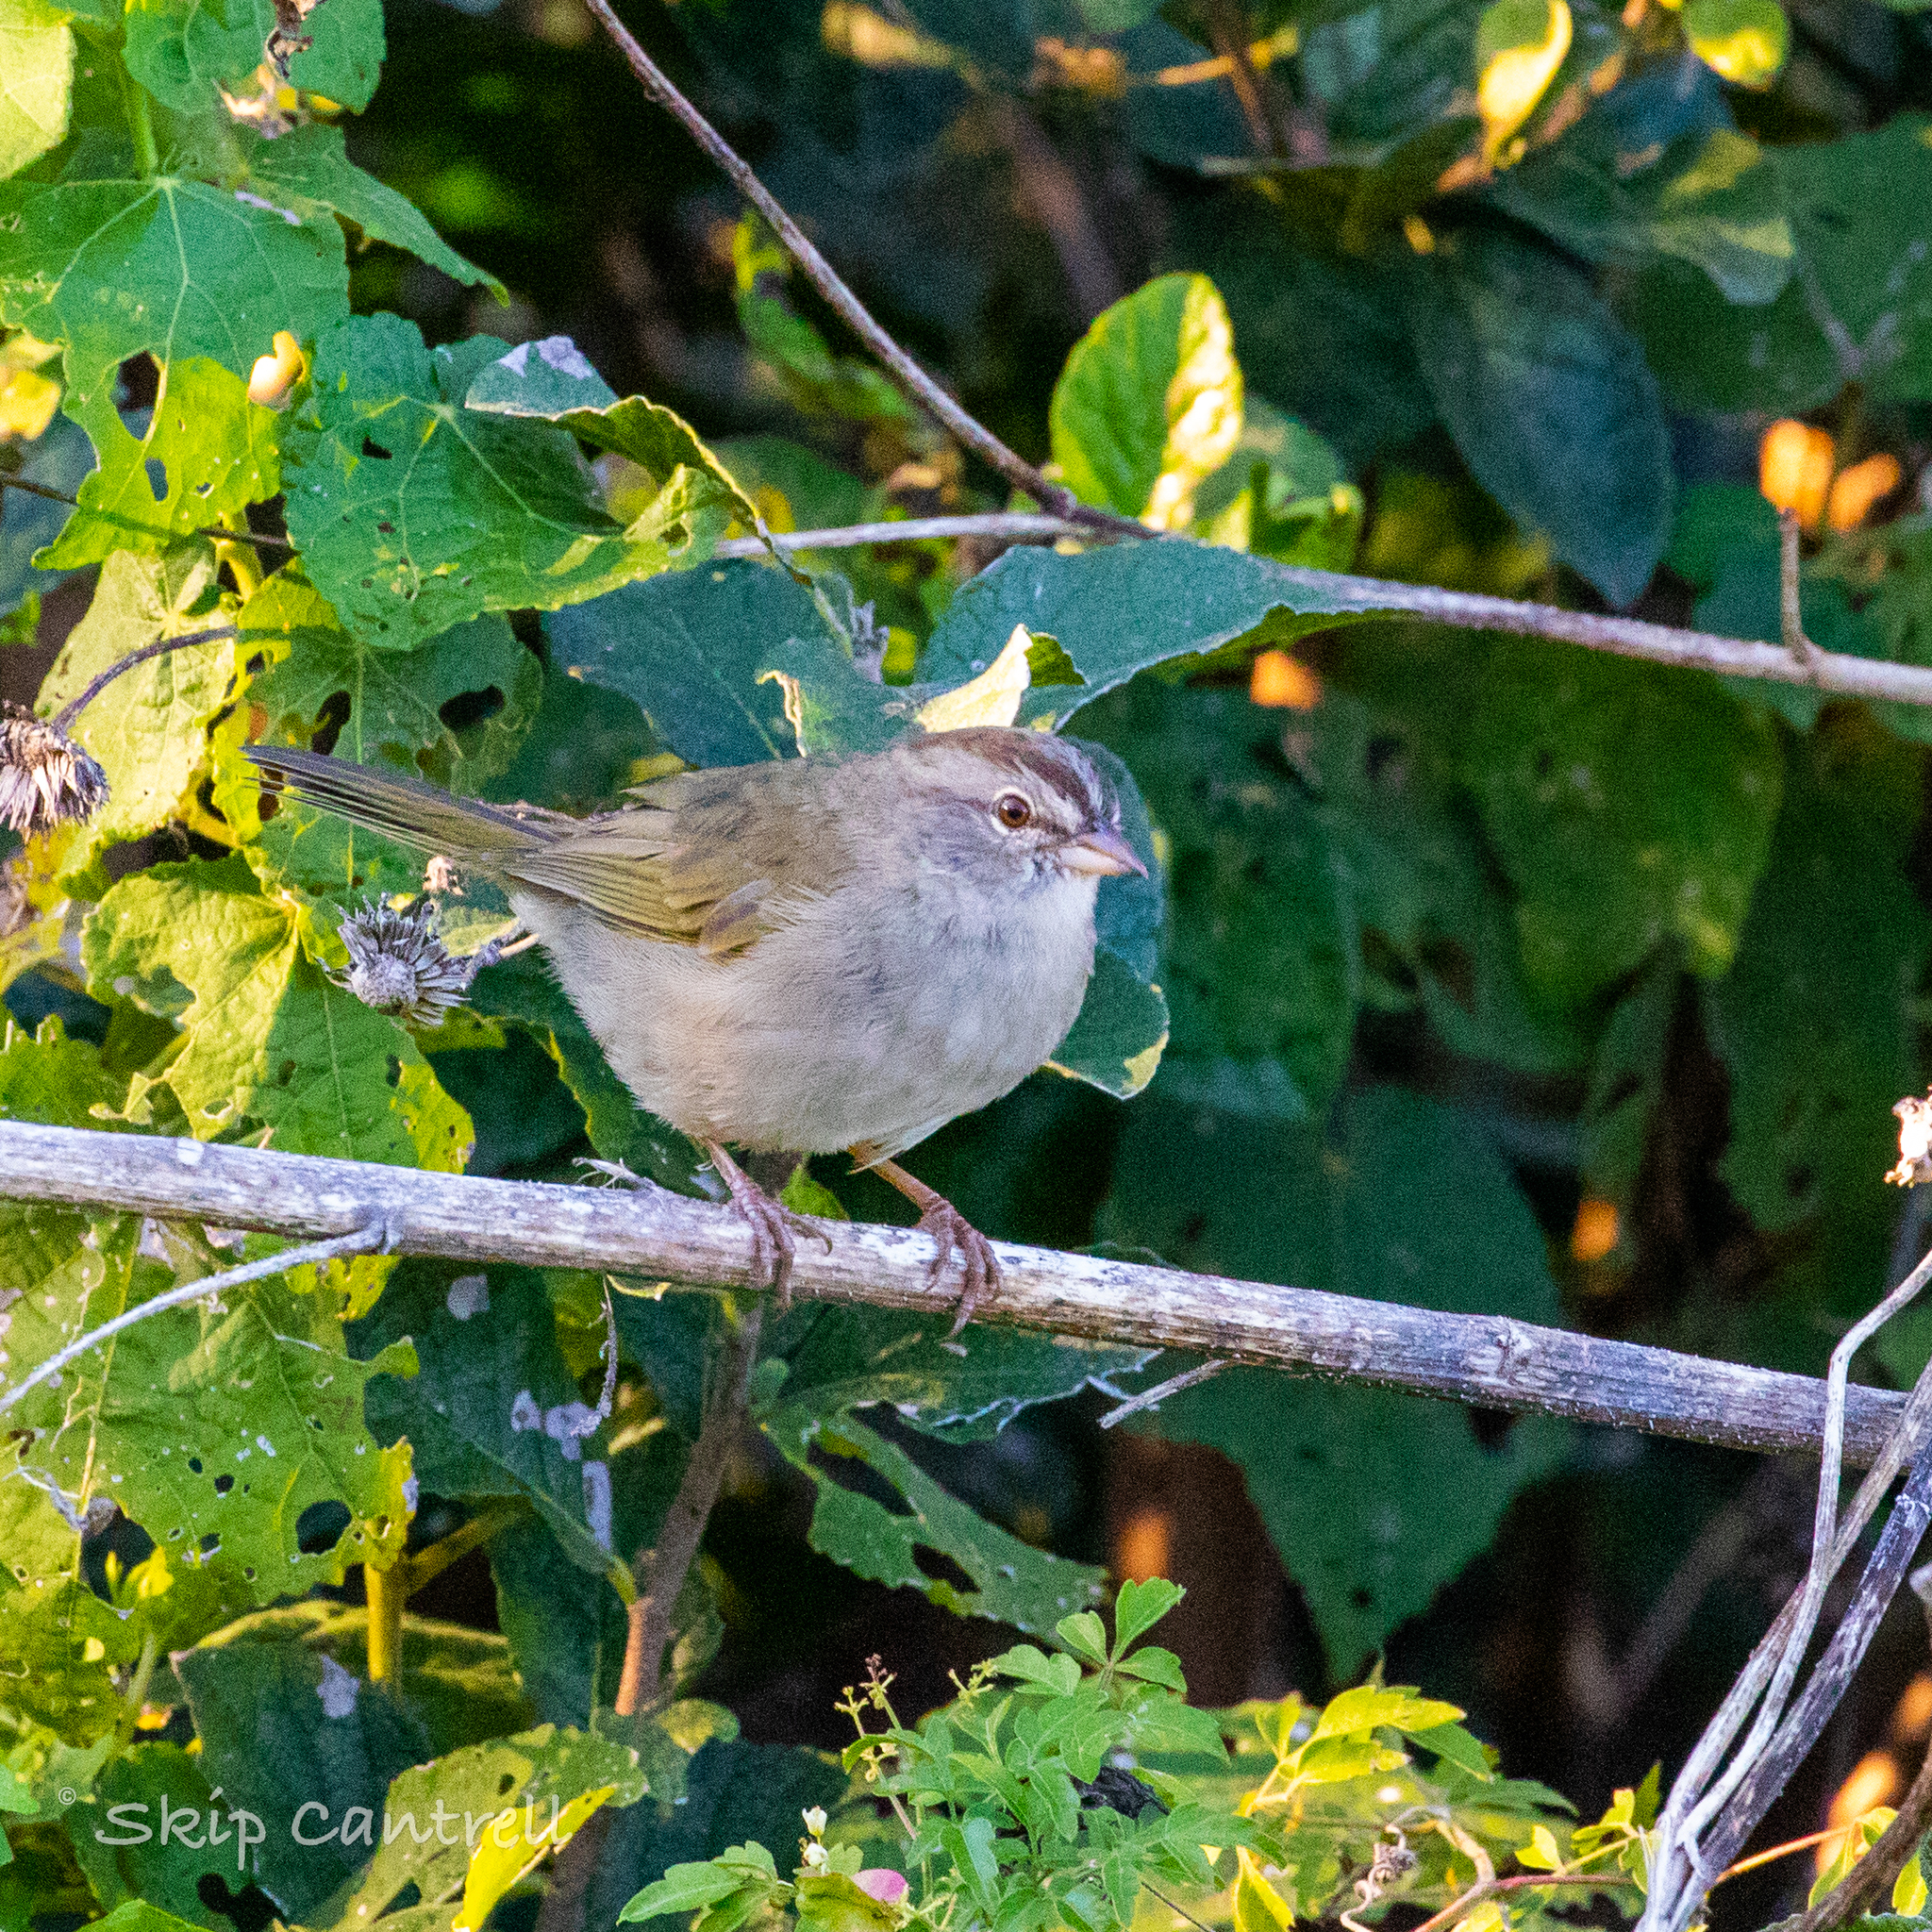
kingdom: Animalia
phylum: Chordata
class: Aves
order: Passeriformes
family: Passerellidae
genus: Arremonops
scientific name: Arremonops rufivirgatus
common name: Olive sparrow
